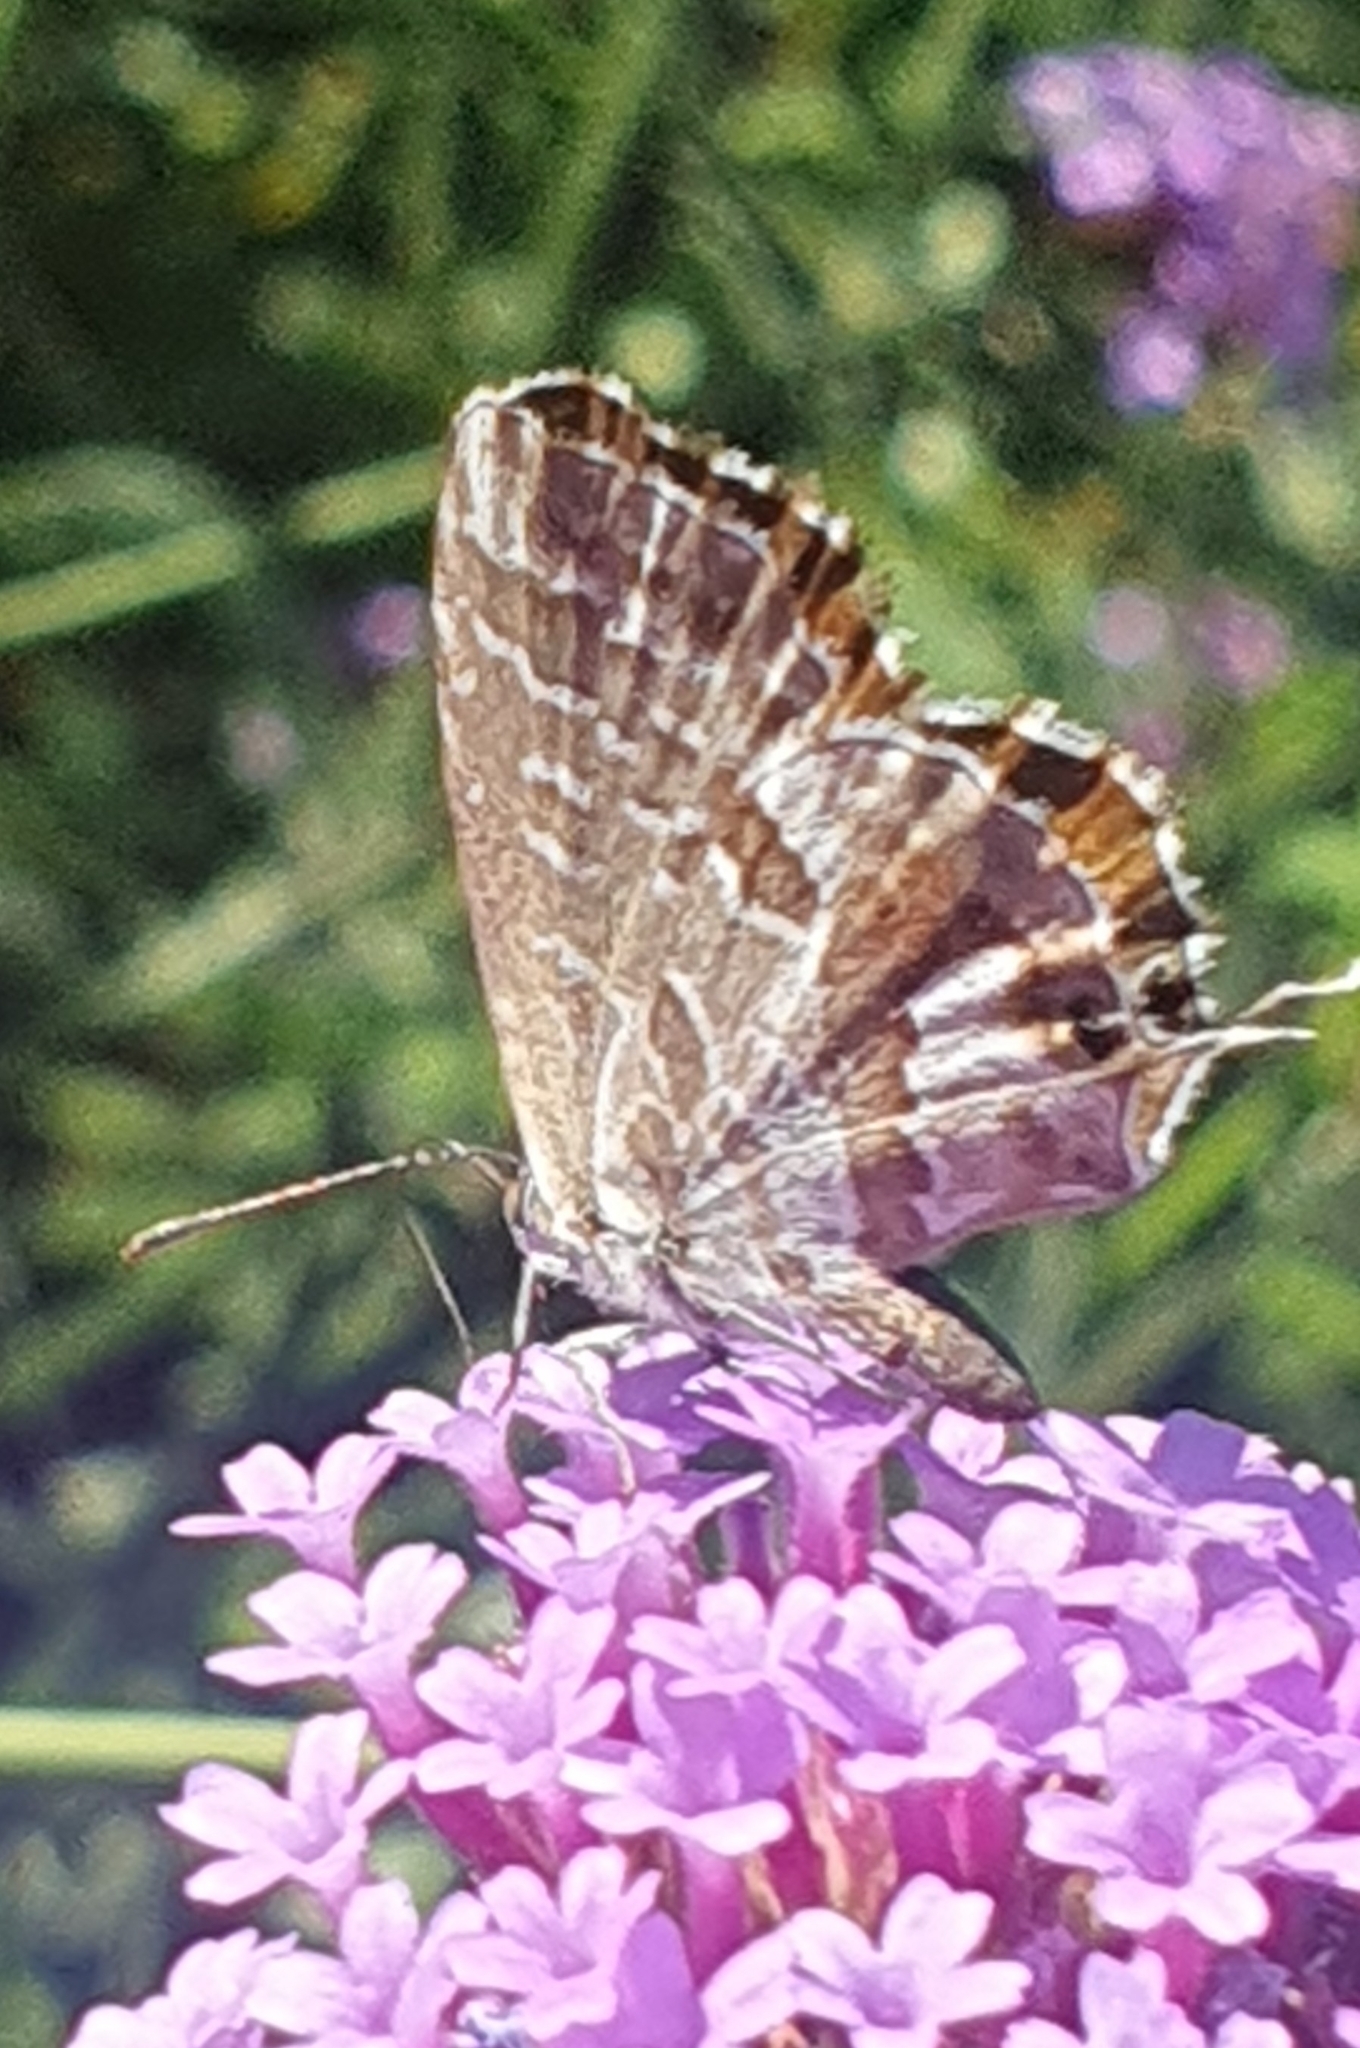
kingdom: Animalia
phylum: Arthropoda
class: Insecta
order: Lepidoptera
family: Lycaenidae
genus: Cacyreus
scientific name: Cacyreus marshalli
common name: Geranium bronze
